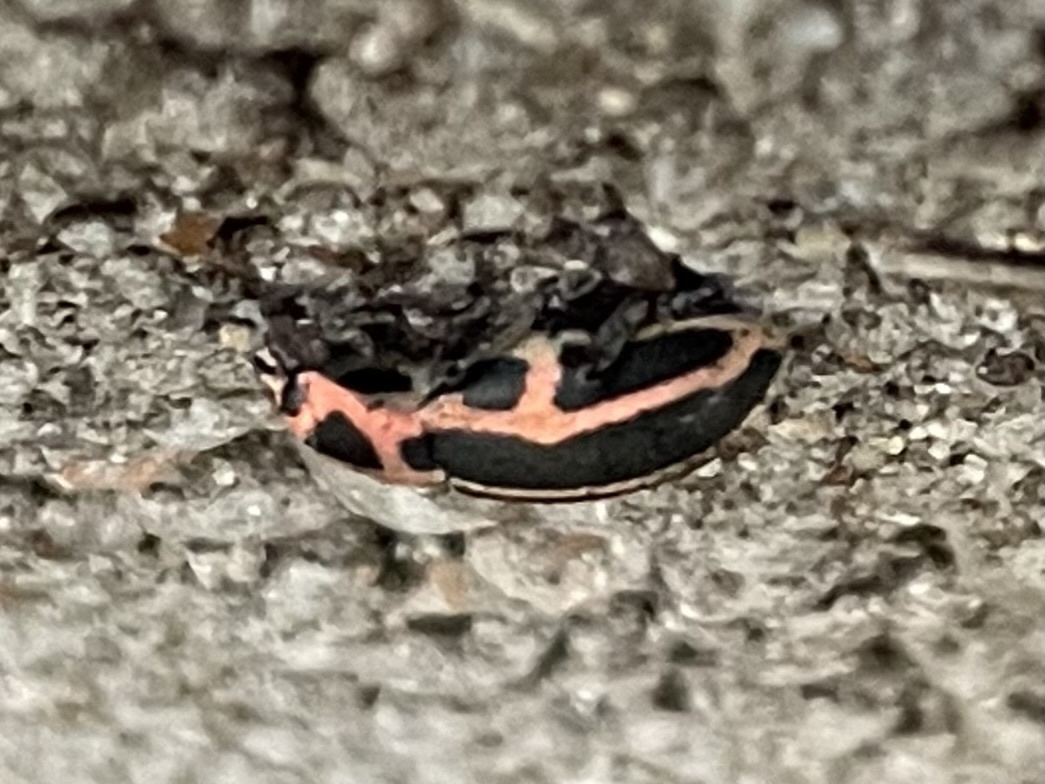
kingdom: Animalia
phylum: Arthropoda
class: Insecta
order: Coleoptera
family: Curculionidae
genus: Eudiagogus
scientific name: Eudiagogus pulcher
